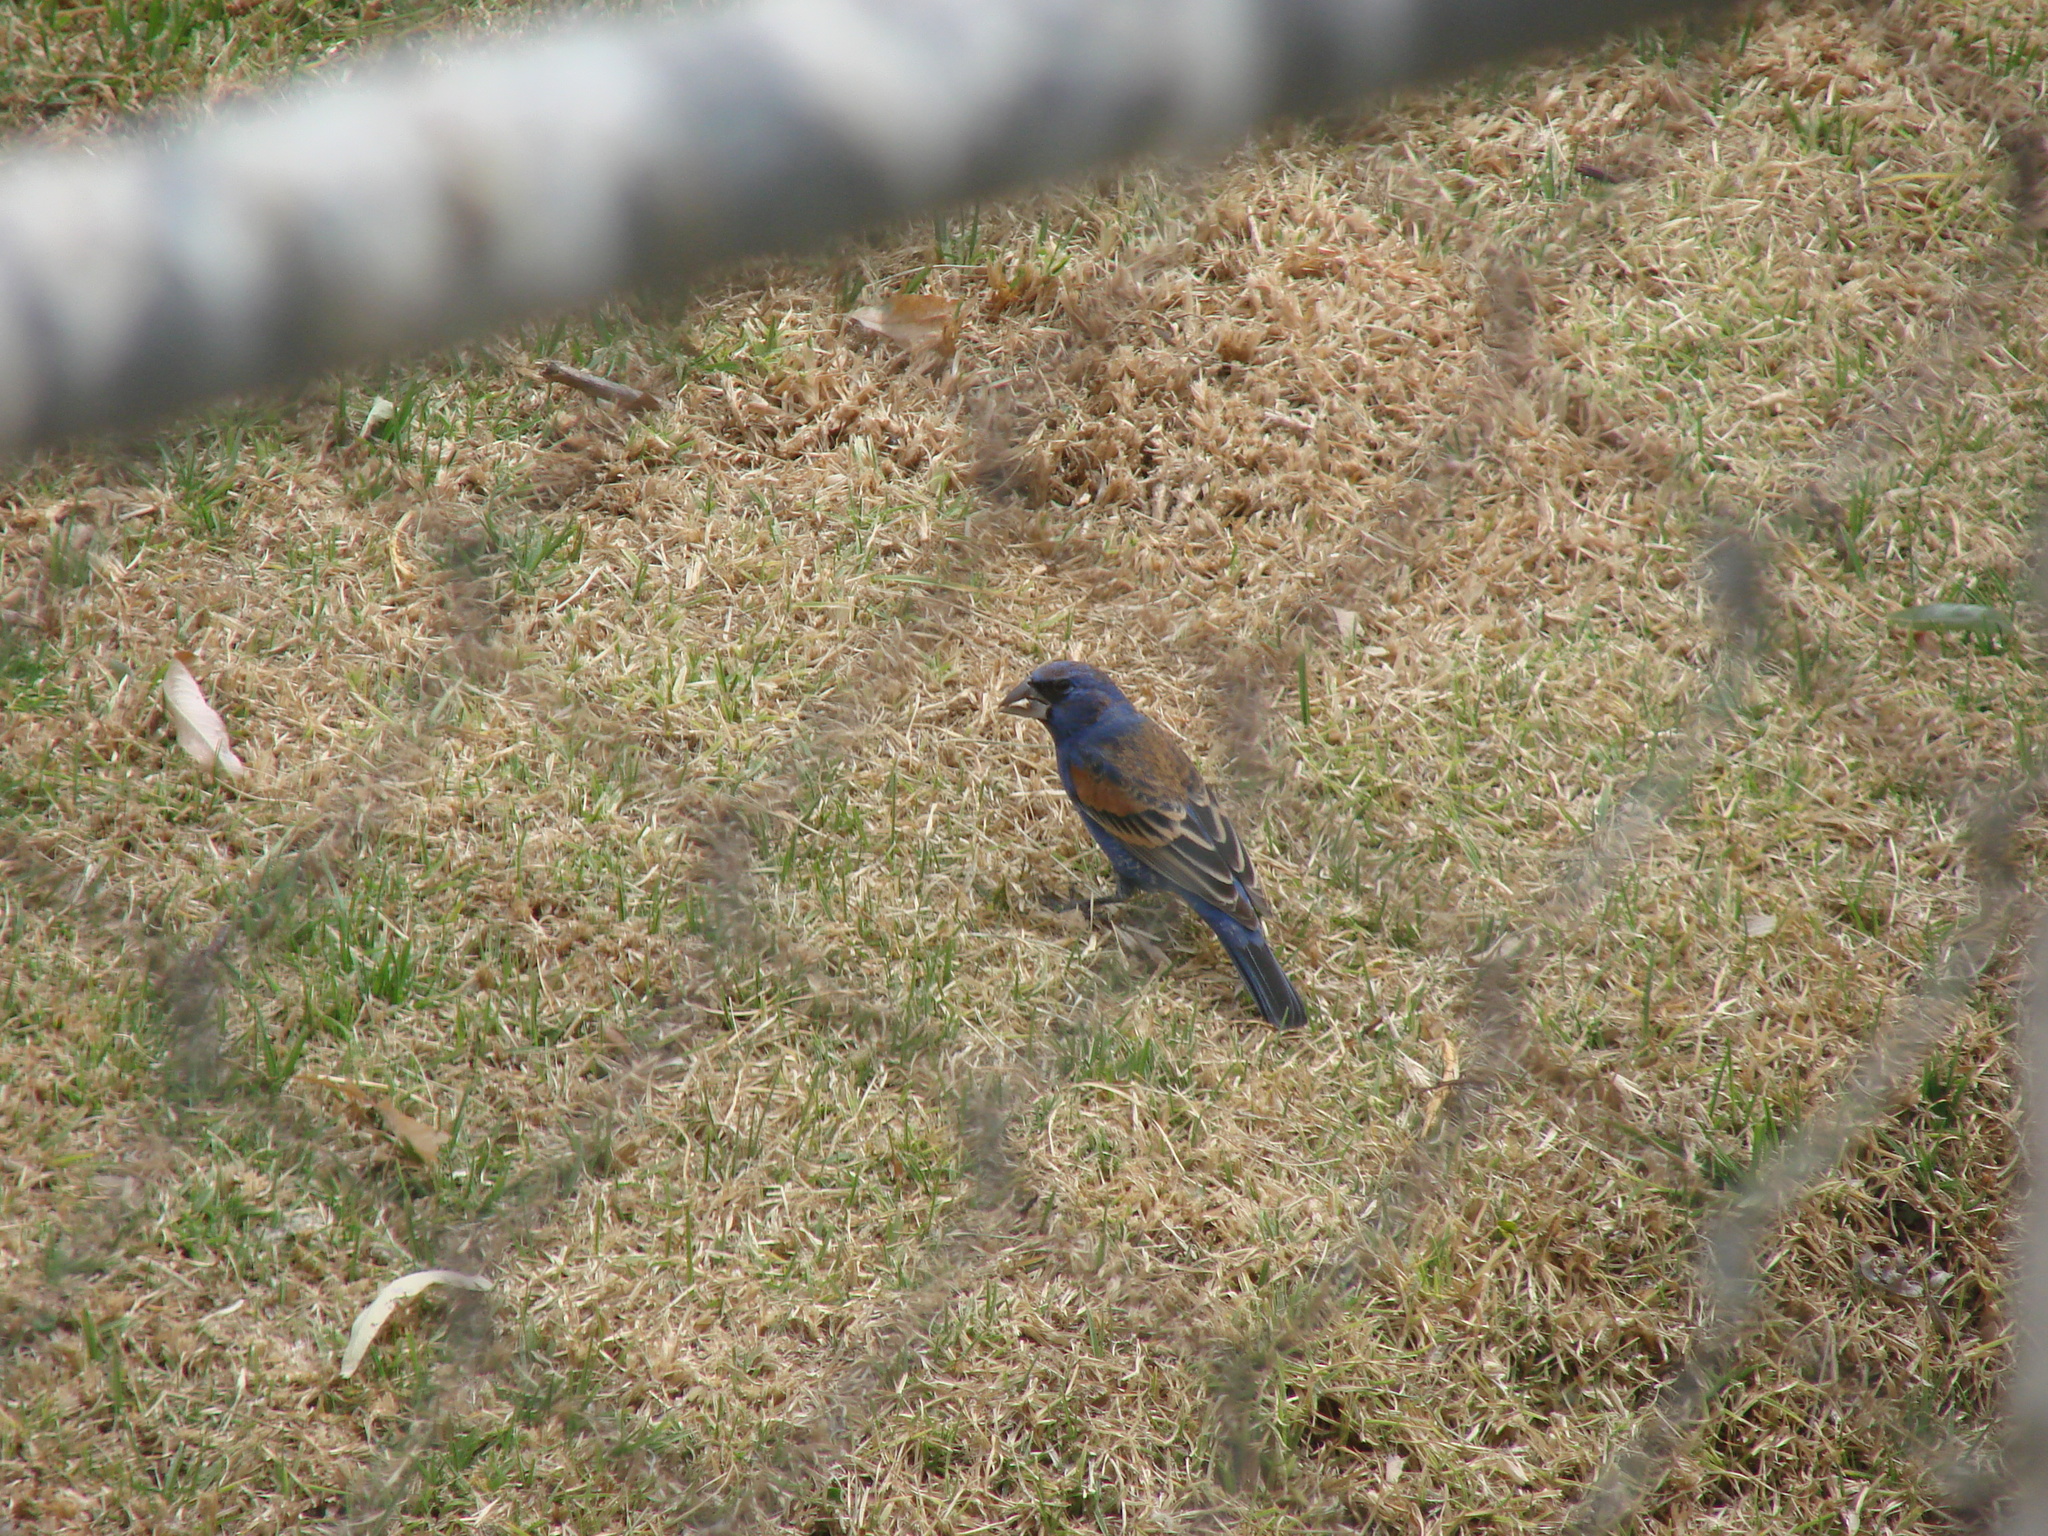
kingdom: Animalia
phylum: Chordata
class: Aves
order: Passeriformes
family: Cardinalidae
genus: Passerina
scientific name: Passerina caerulea
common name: Blue grosbeak
